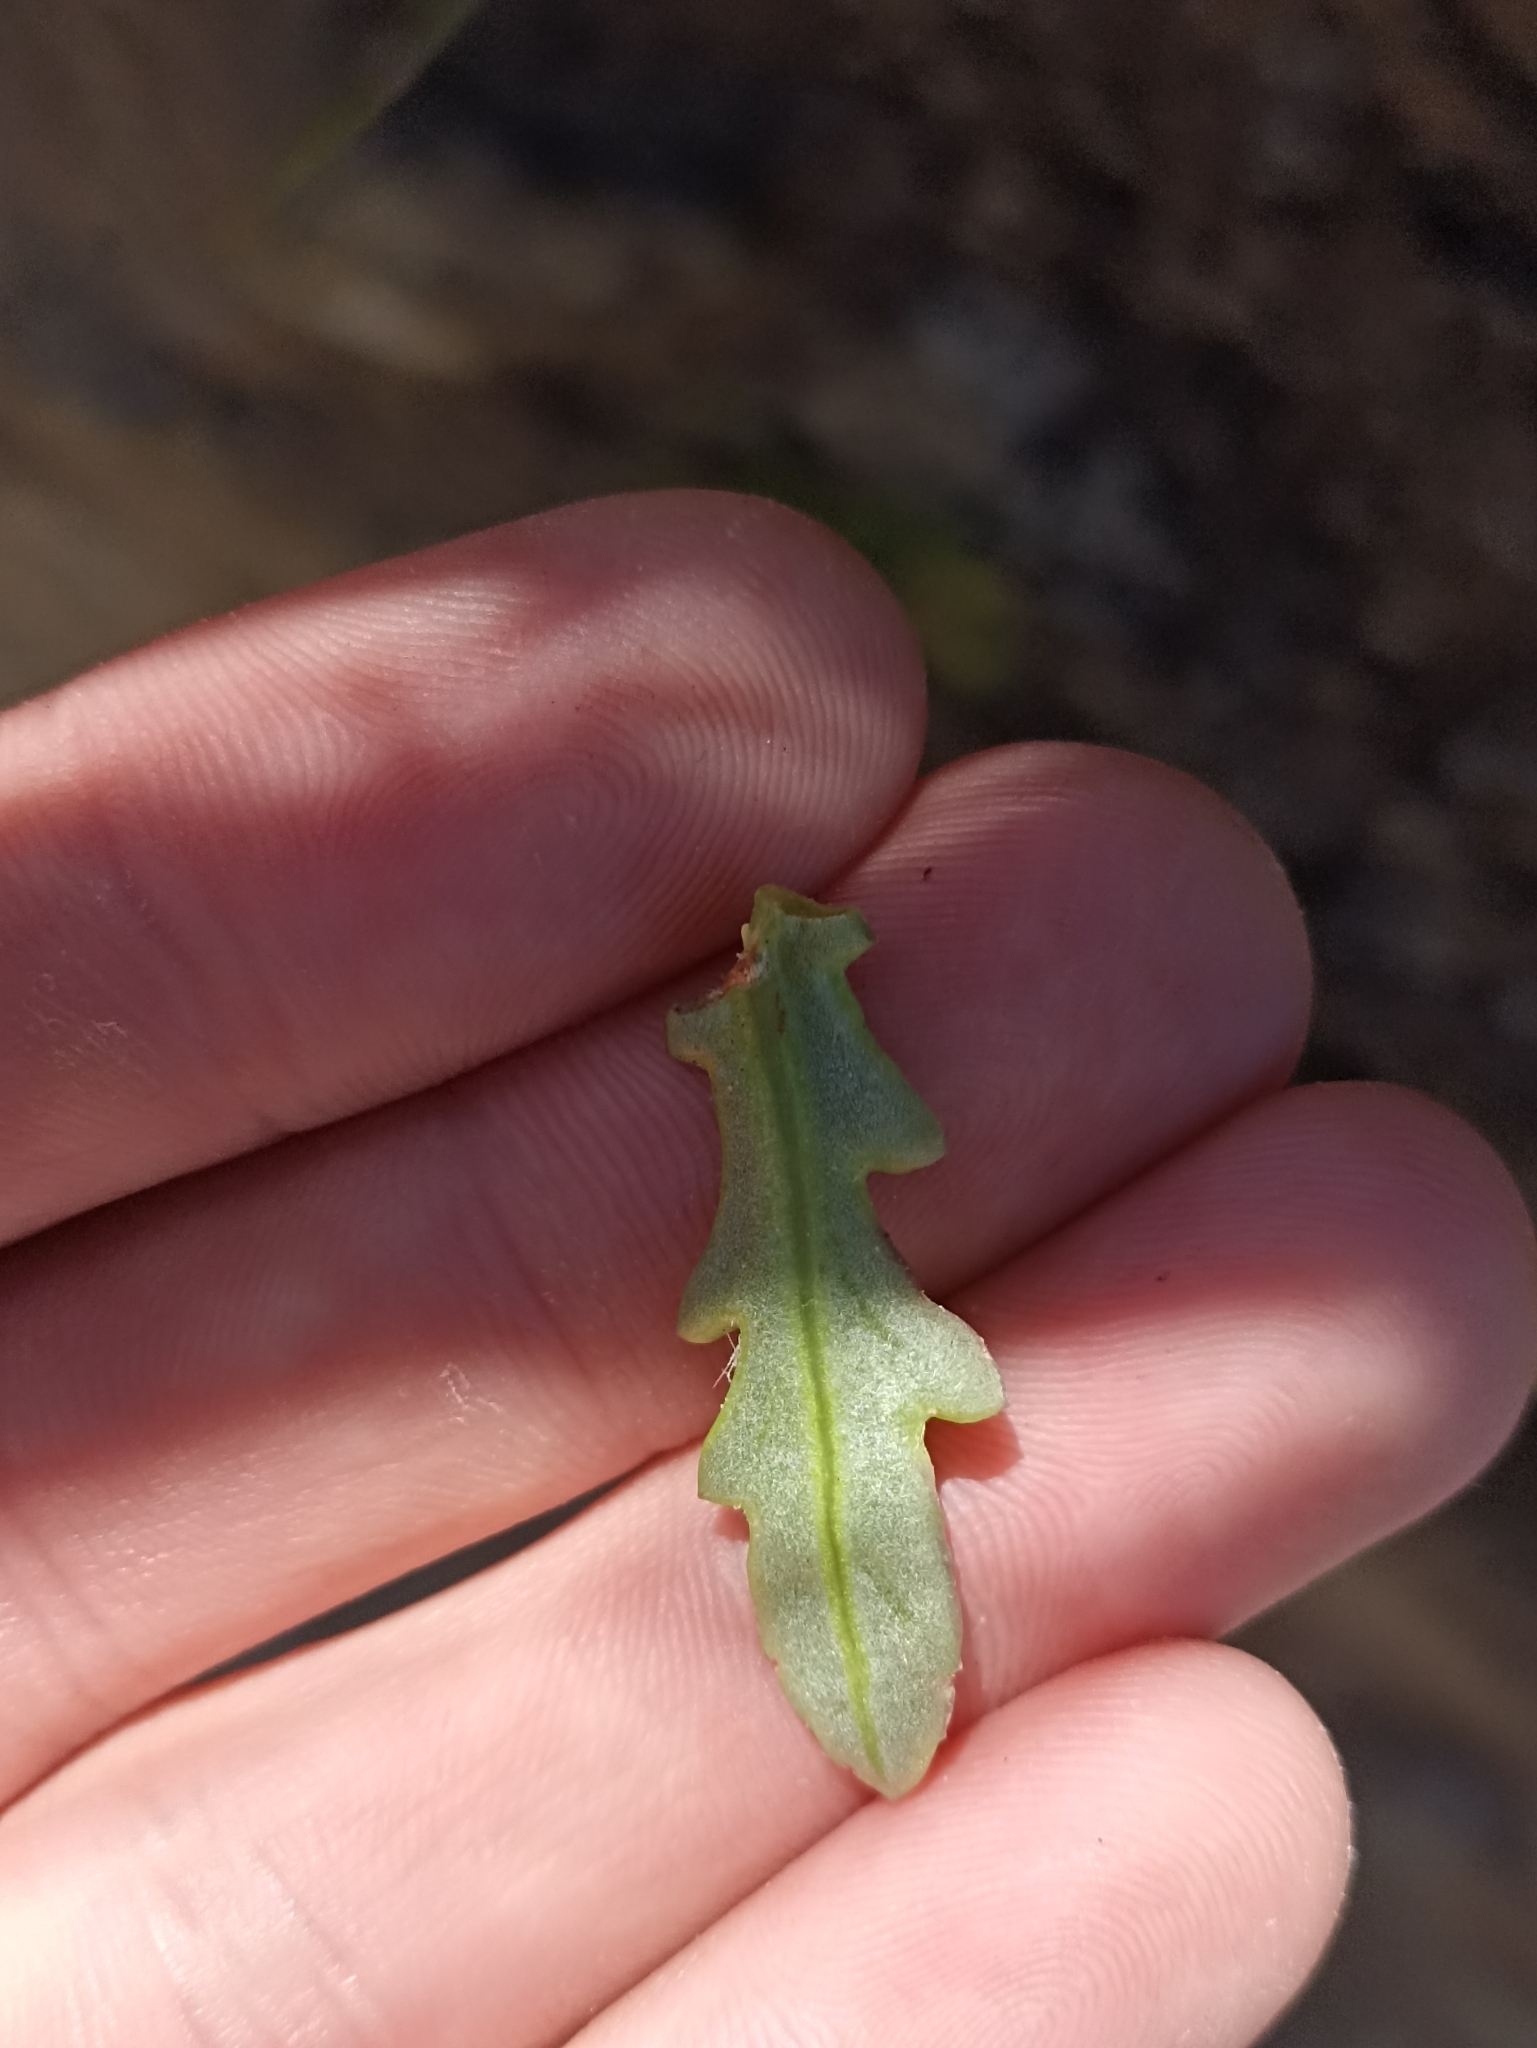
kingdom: Plantae
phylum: Tracheophyta
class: Magnoliopsida
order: Asterales
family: Asteraceae
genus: Senecio
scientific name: Senecio lautus
